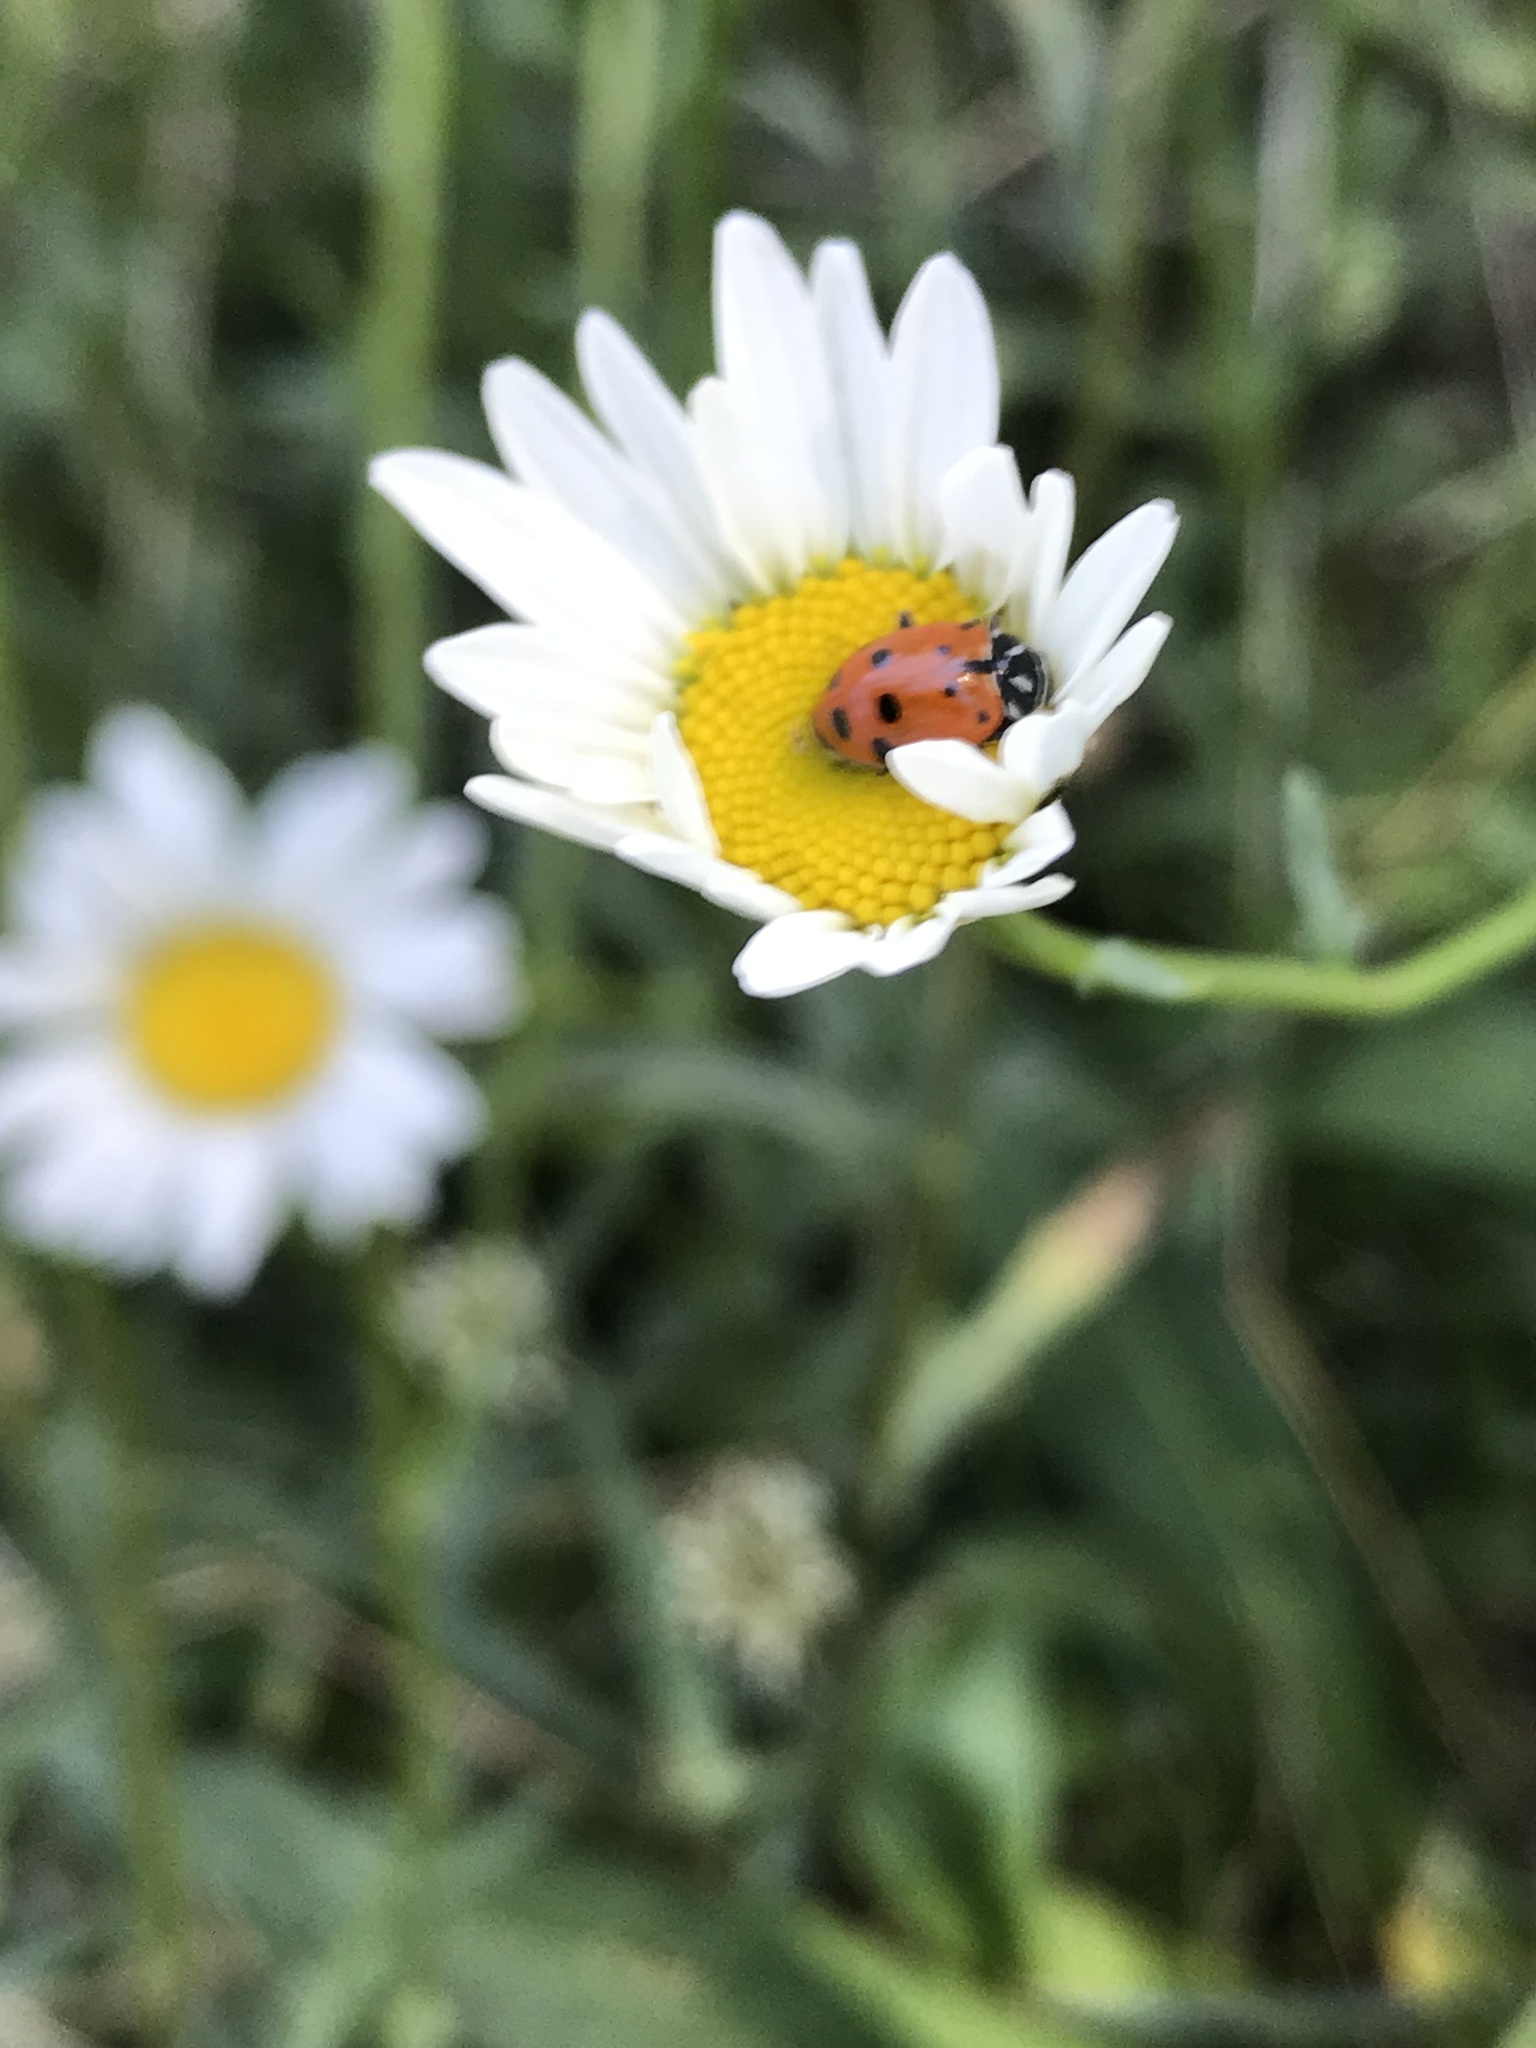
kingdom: Animalia
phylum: Arthropoda
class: Insecta
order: Coleoptera
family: Coccinellidae
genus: Hippodamia
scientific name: Hippodamia convergens
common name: Convergent lady beetle
